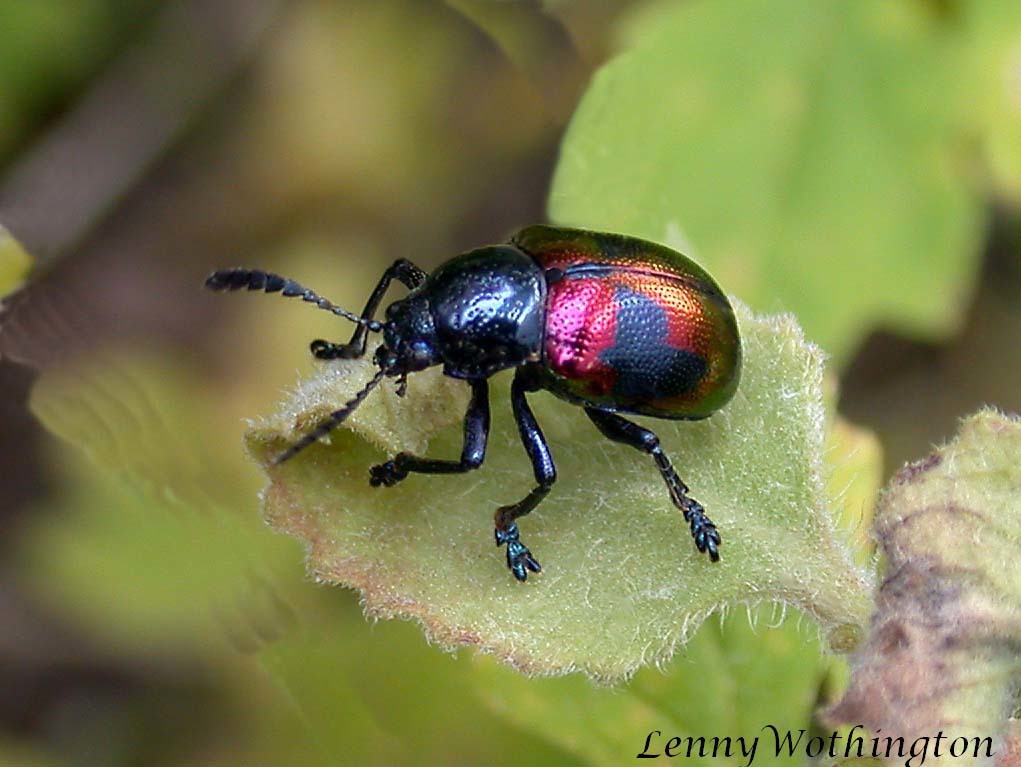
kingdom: Animalia
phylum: Arthropoda
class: Insecta
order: Coleoptera
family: Chrysomelidae
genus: Platycorynus
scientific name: Platycorynus undatus
